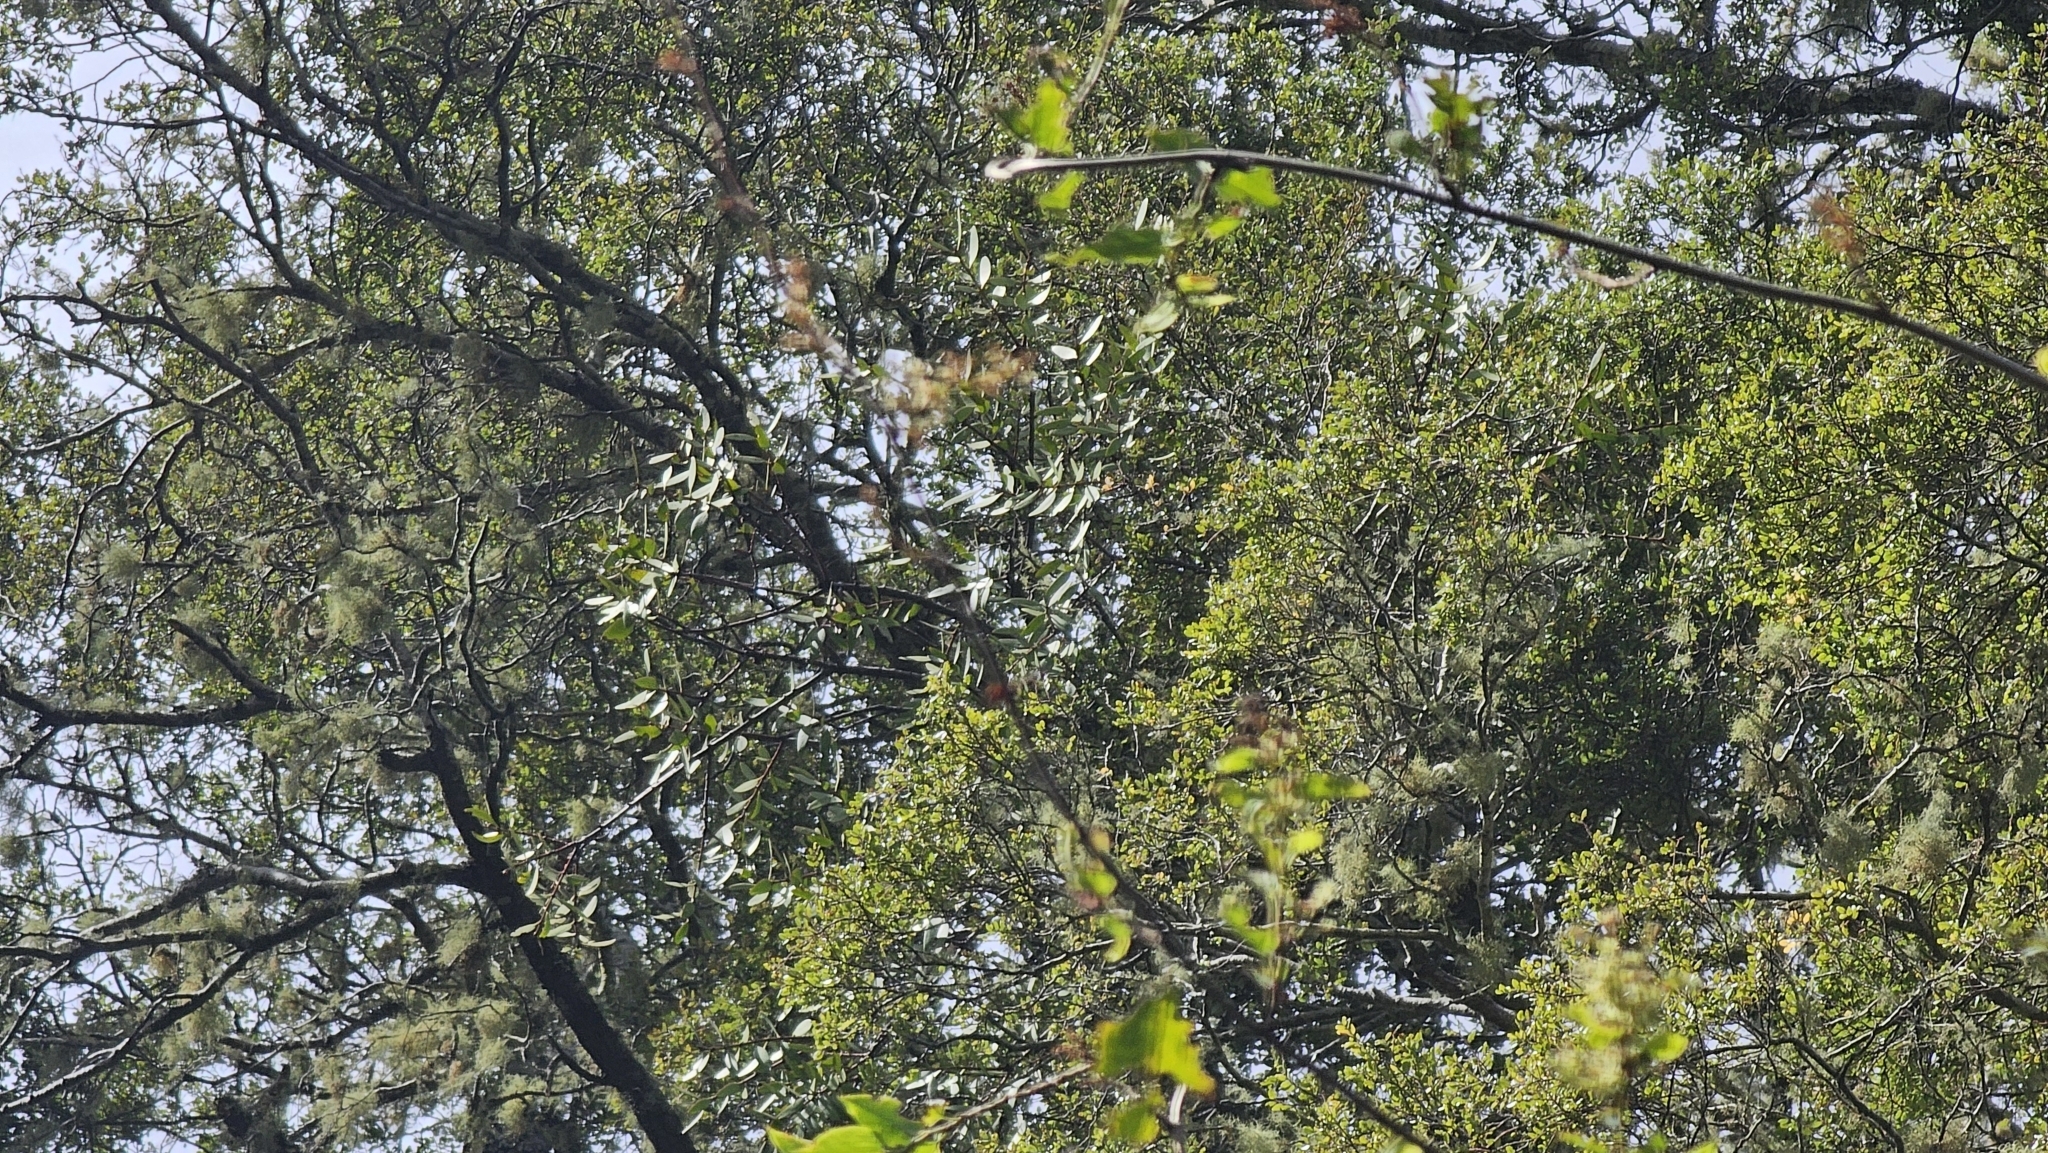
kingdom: Plantae
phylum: Tracheophyta
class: Magnoliopsida
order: Santalales
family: Loranthaceae
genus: Alepis
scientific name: Alepis flavida
